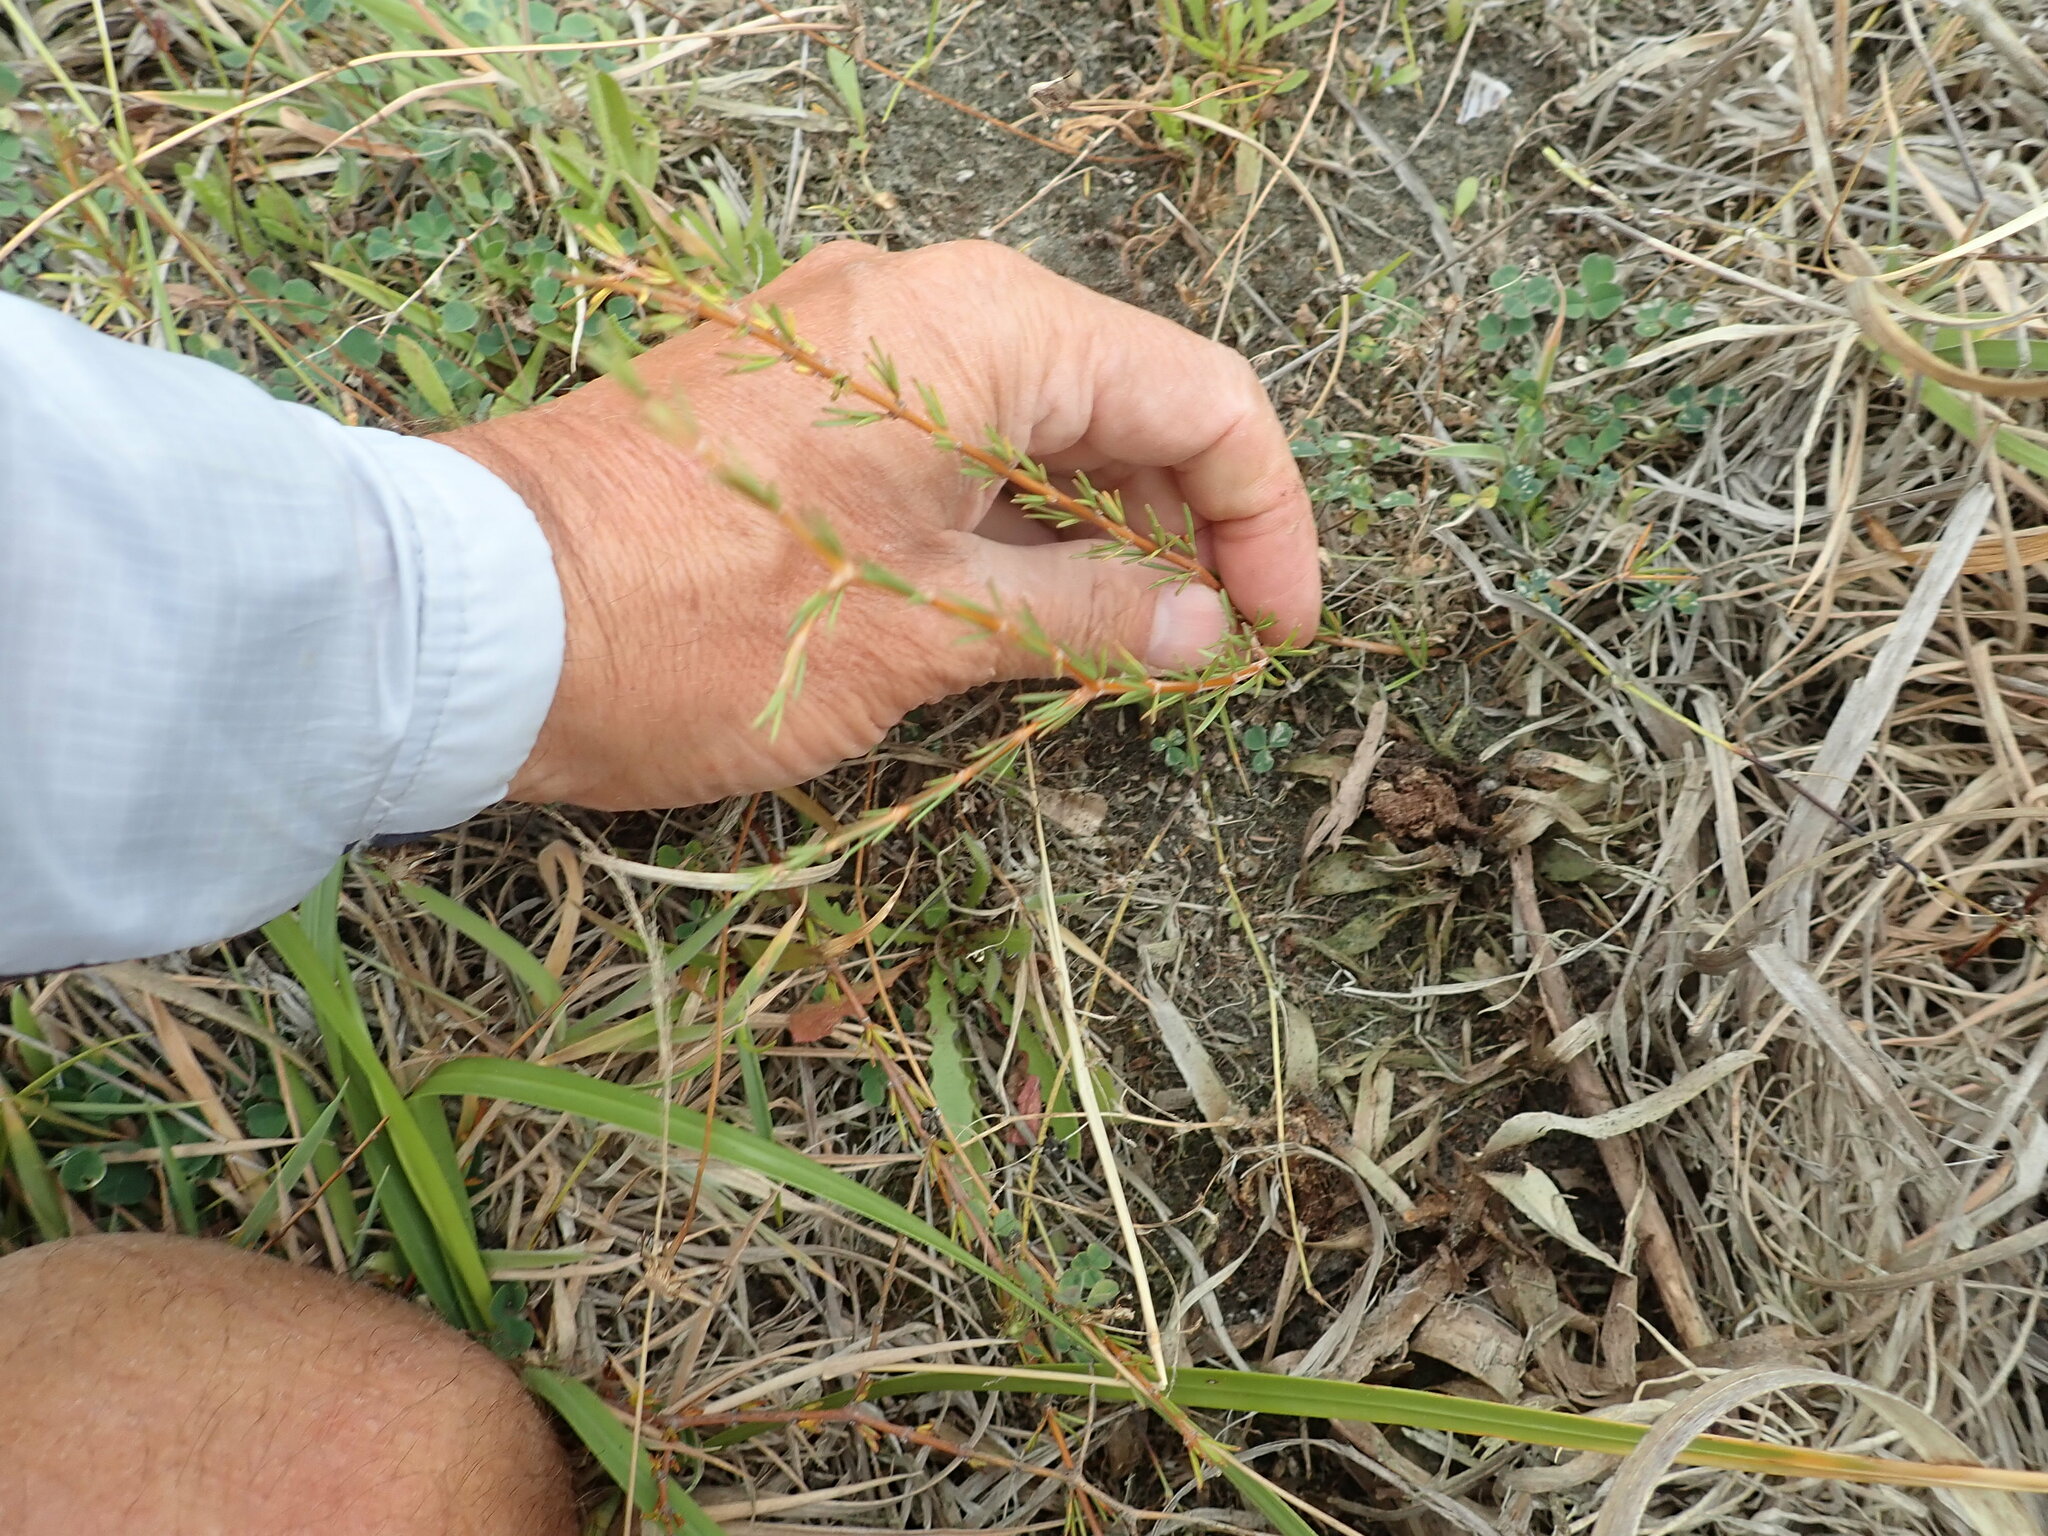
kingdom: Plantae
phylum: Tracheophyta
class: Magnoliopsida
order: Gentianales
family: Rubiaceae
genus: Coprosma
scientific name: Coprosma acerosa
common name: Sand coprosma
